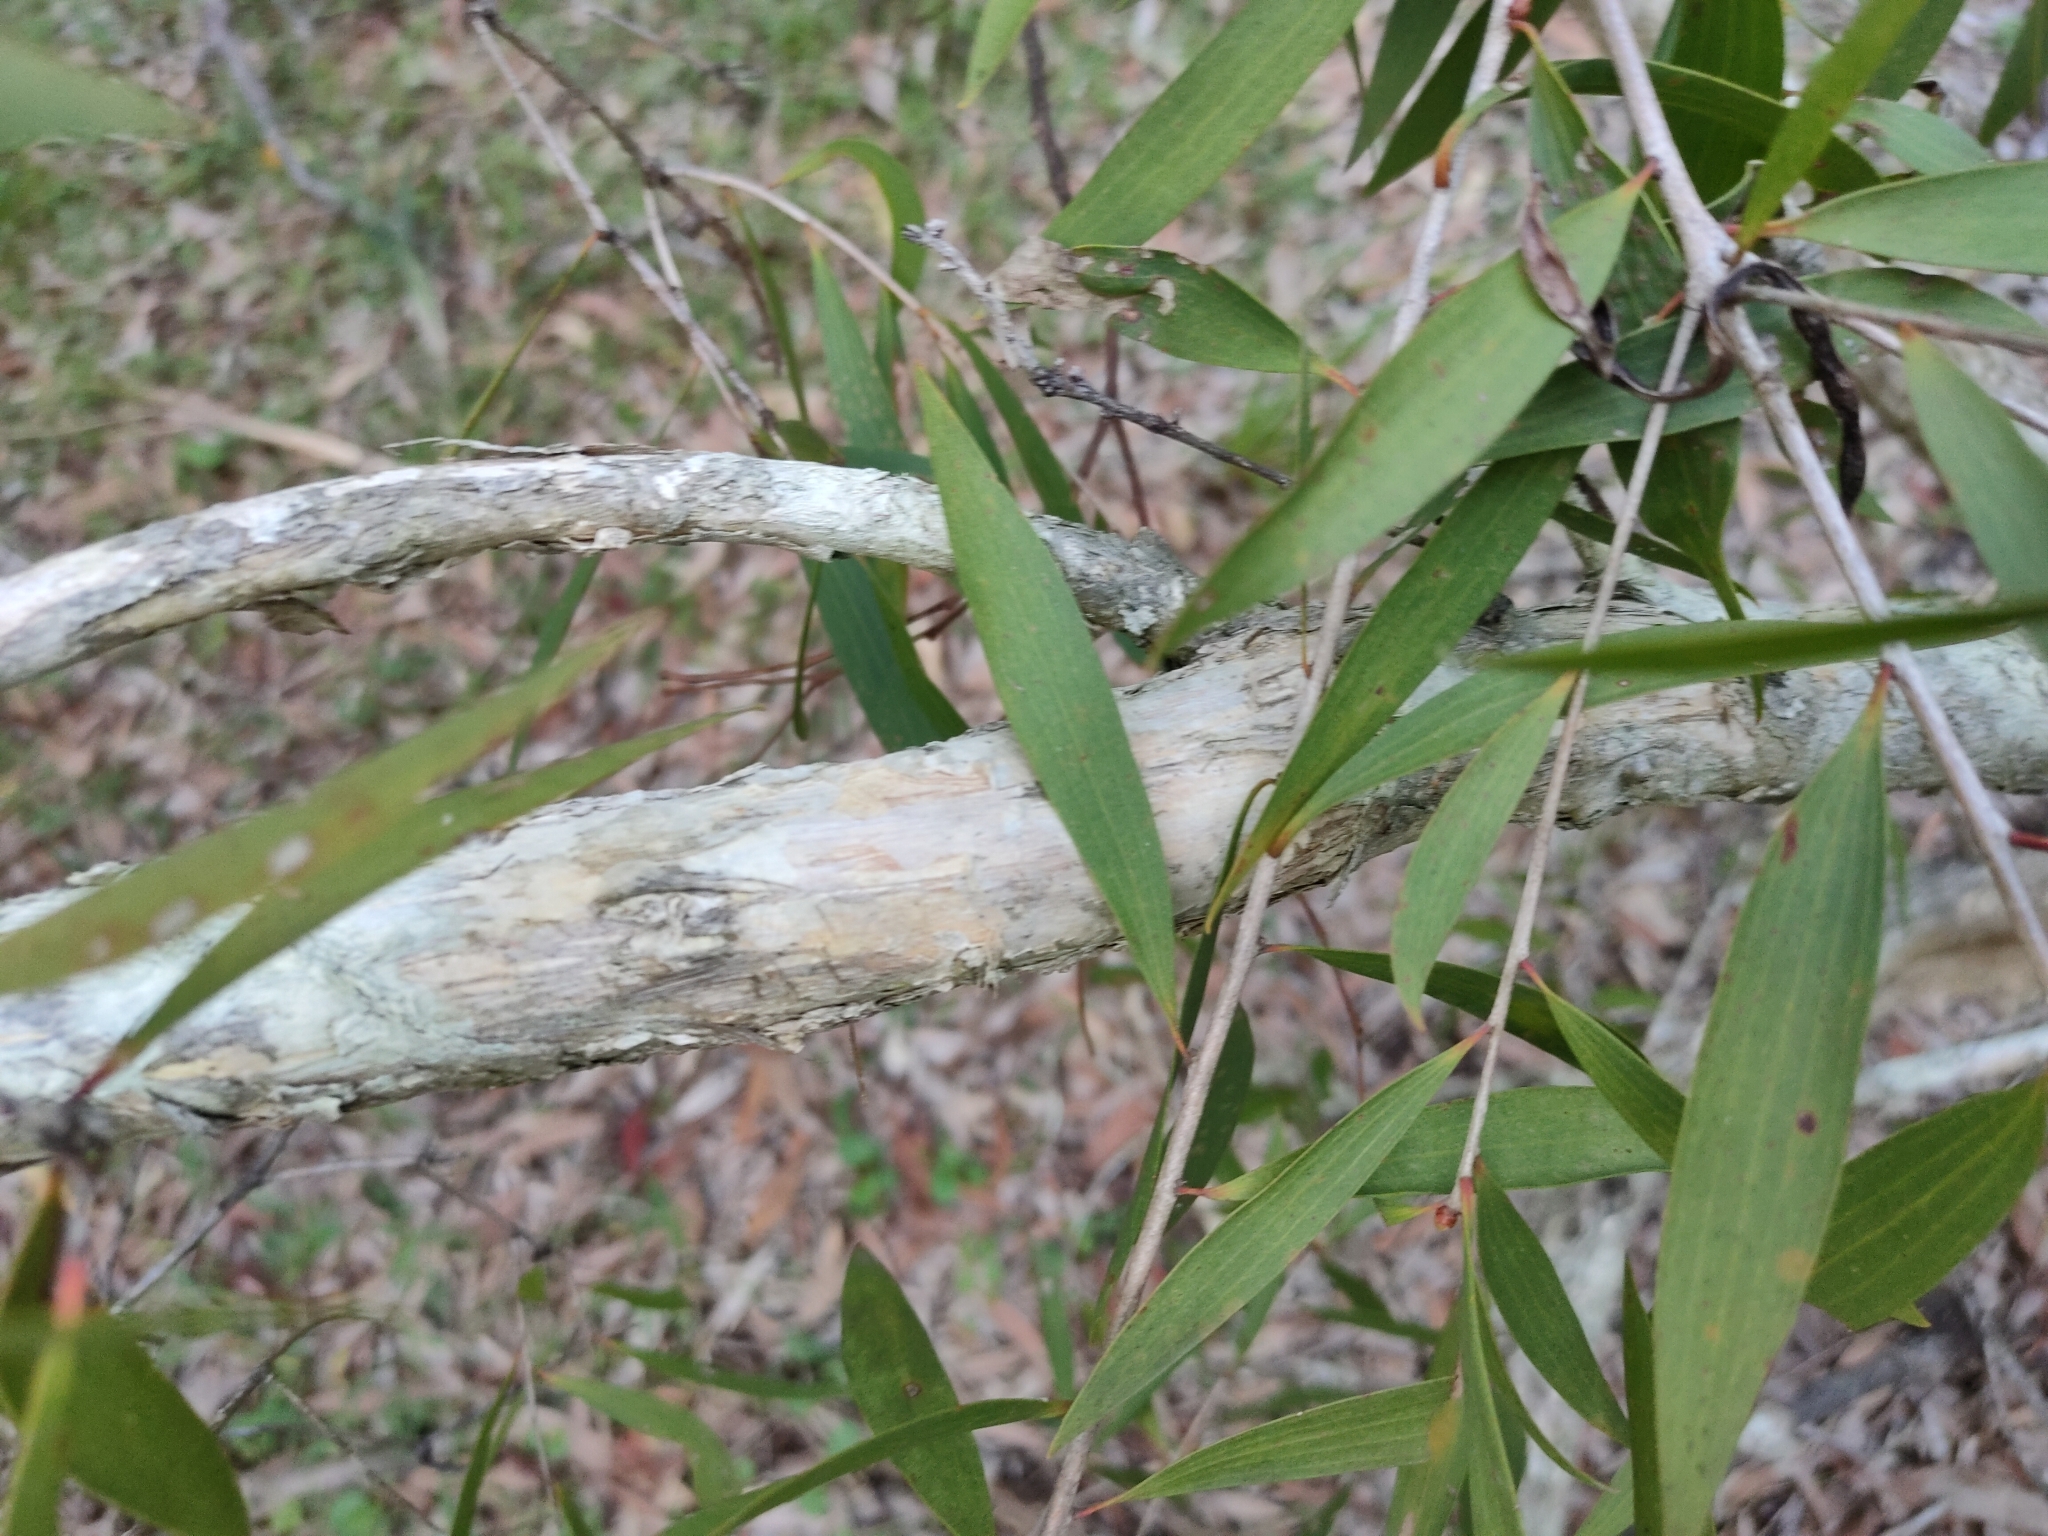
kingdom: Plantae
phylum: Tracheophyta
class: Magnoliopsida
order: Myrtales
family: Myrtaceae
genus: Melaleuca
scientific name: Melaleuca quinquenervia
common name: Punktree
